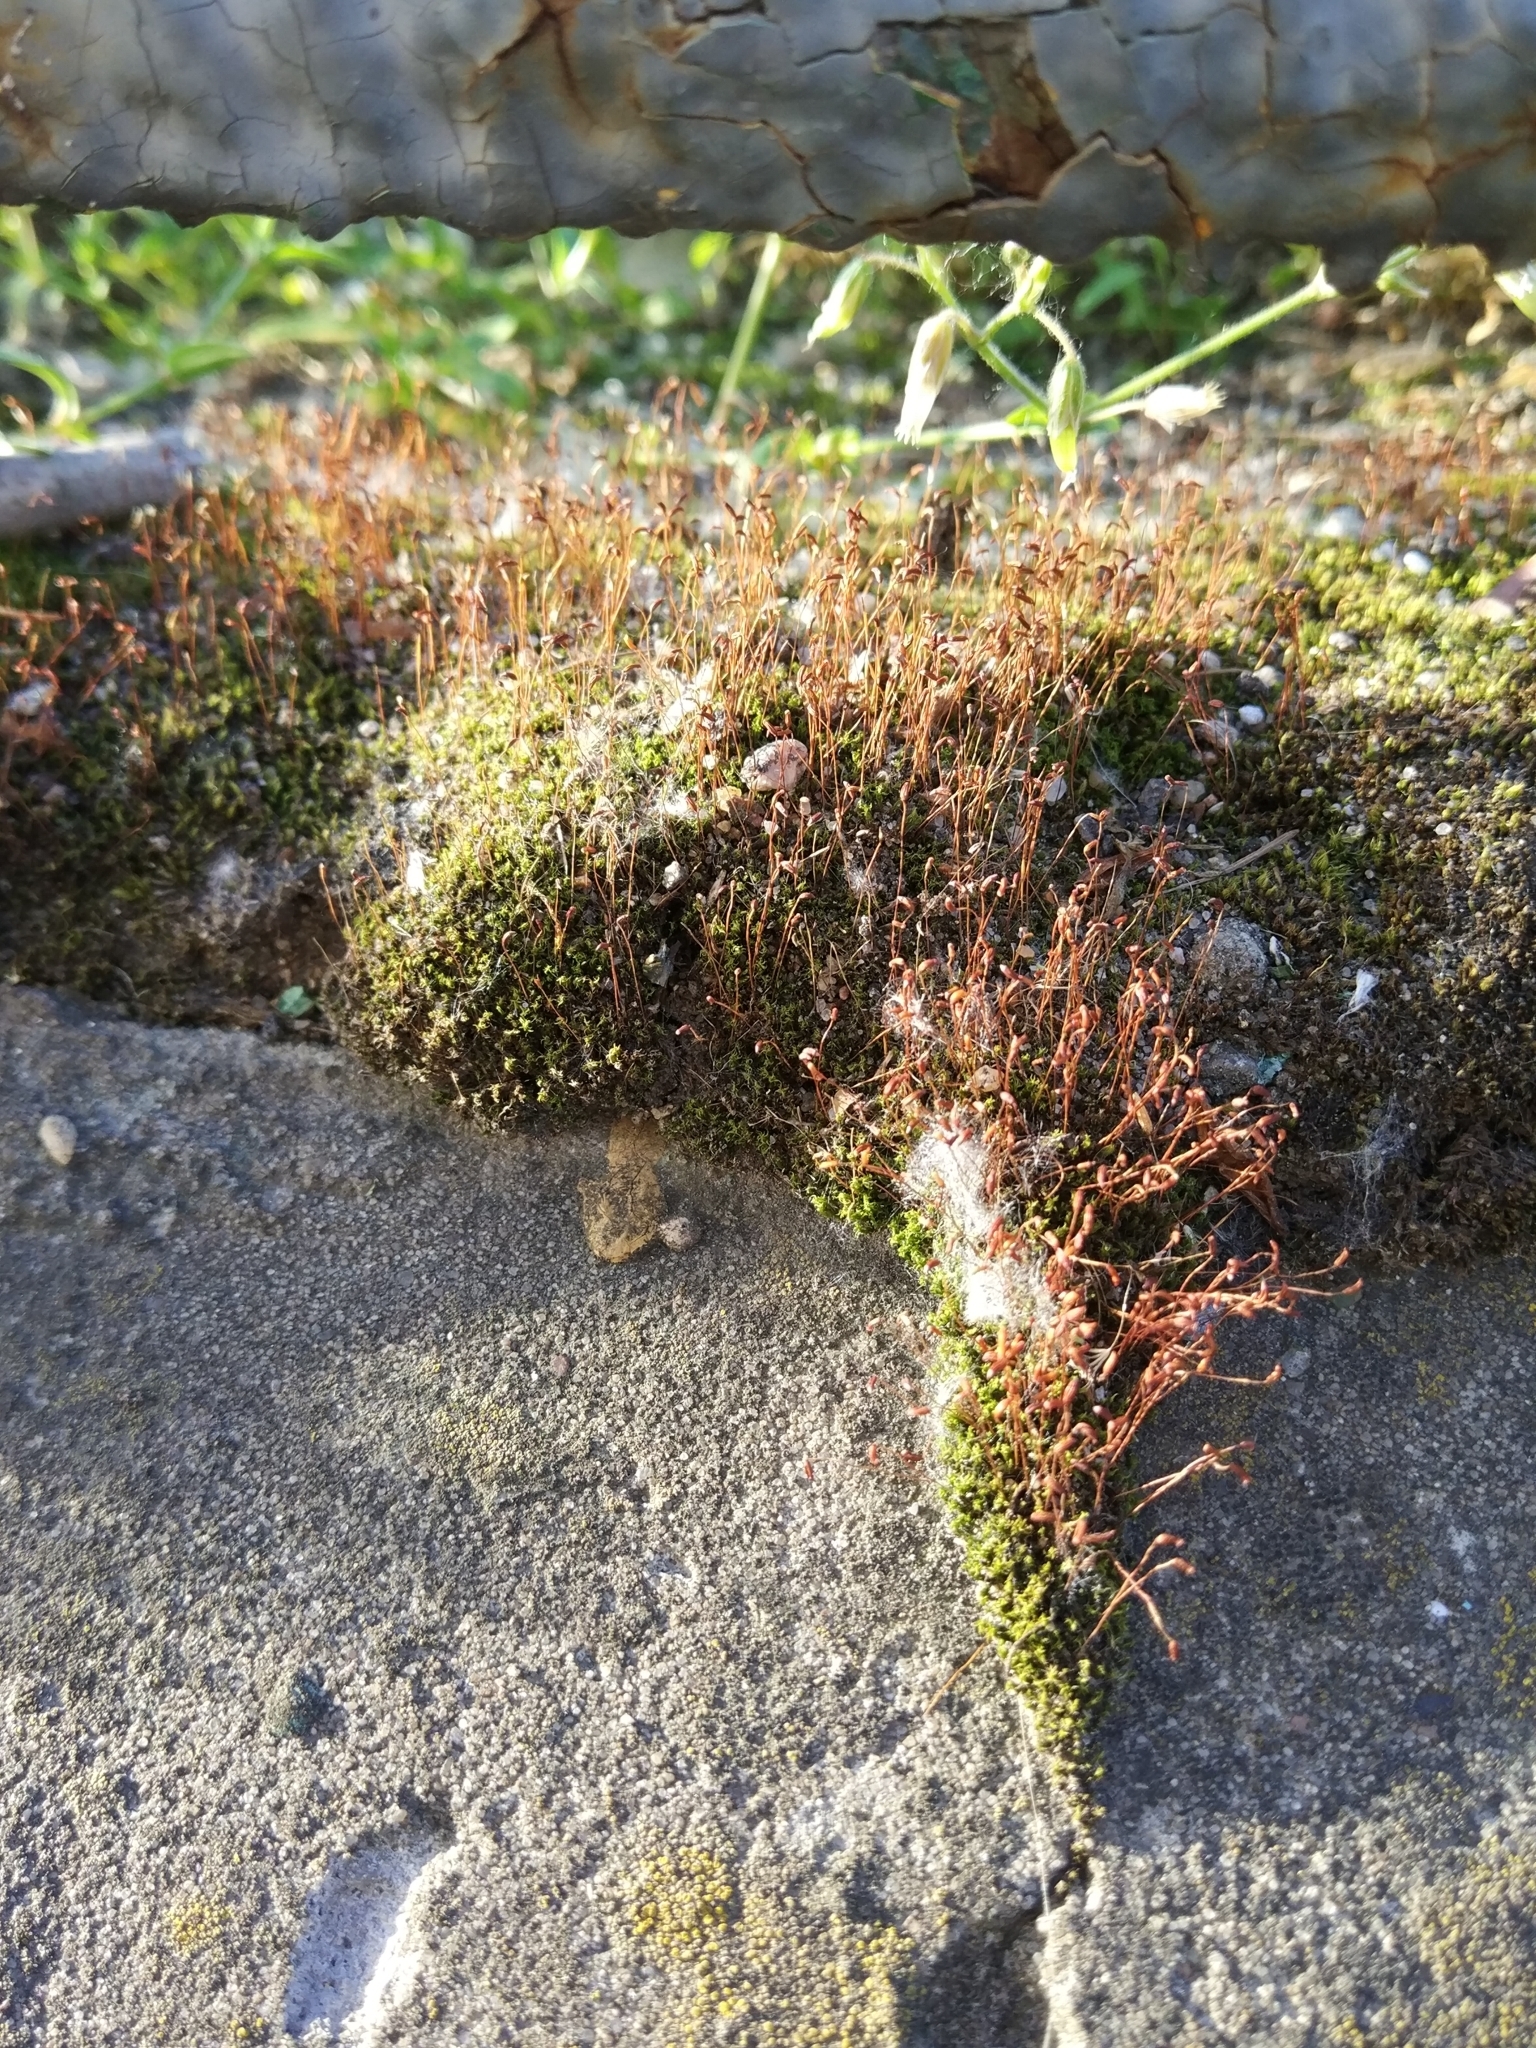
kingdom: Plantae
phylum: Bryophyta
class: Bryopsida
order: Dicranales
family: Ditrichaceae
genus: Ceratodon
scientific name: Ceratodon purpureus
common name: Redshank
